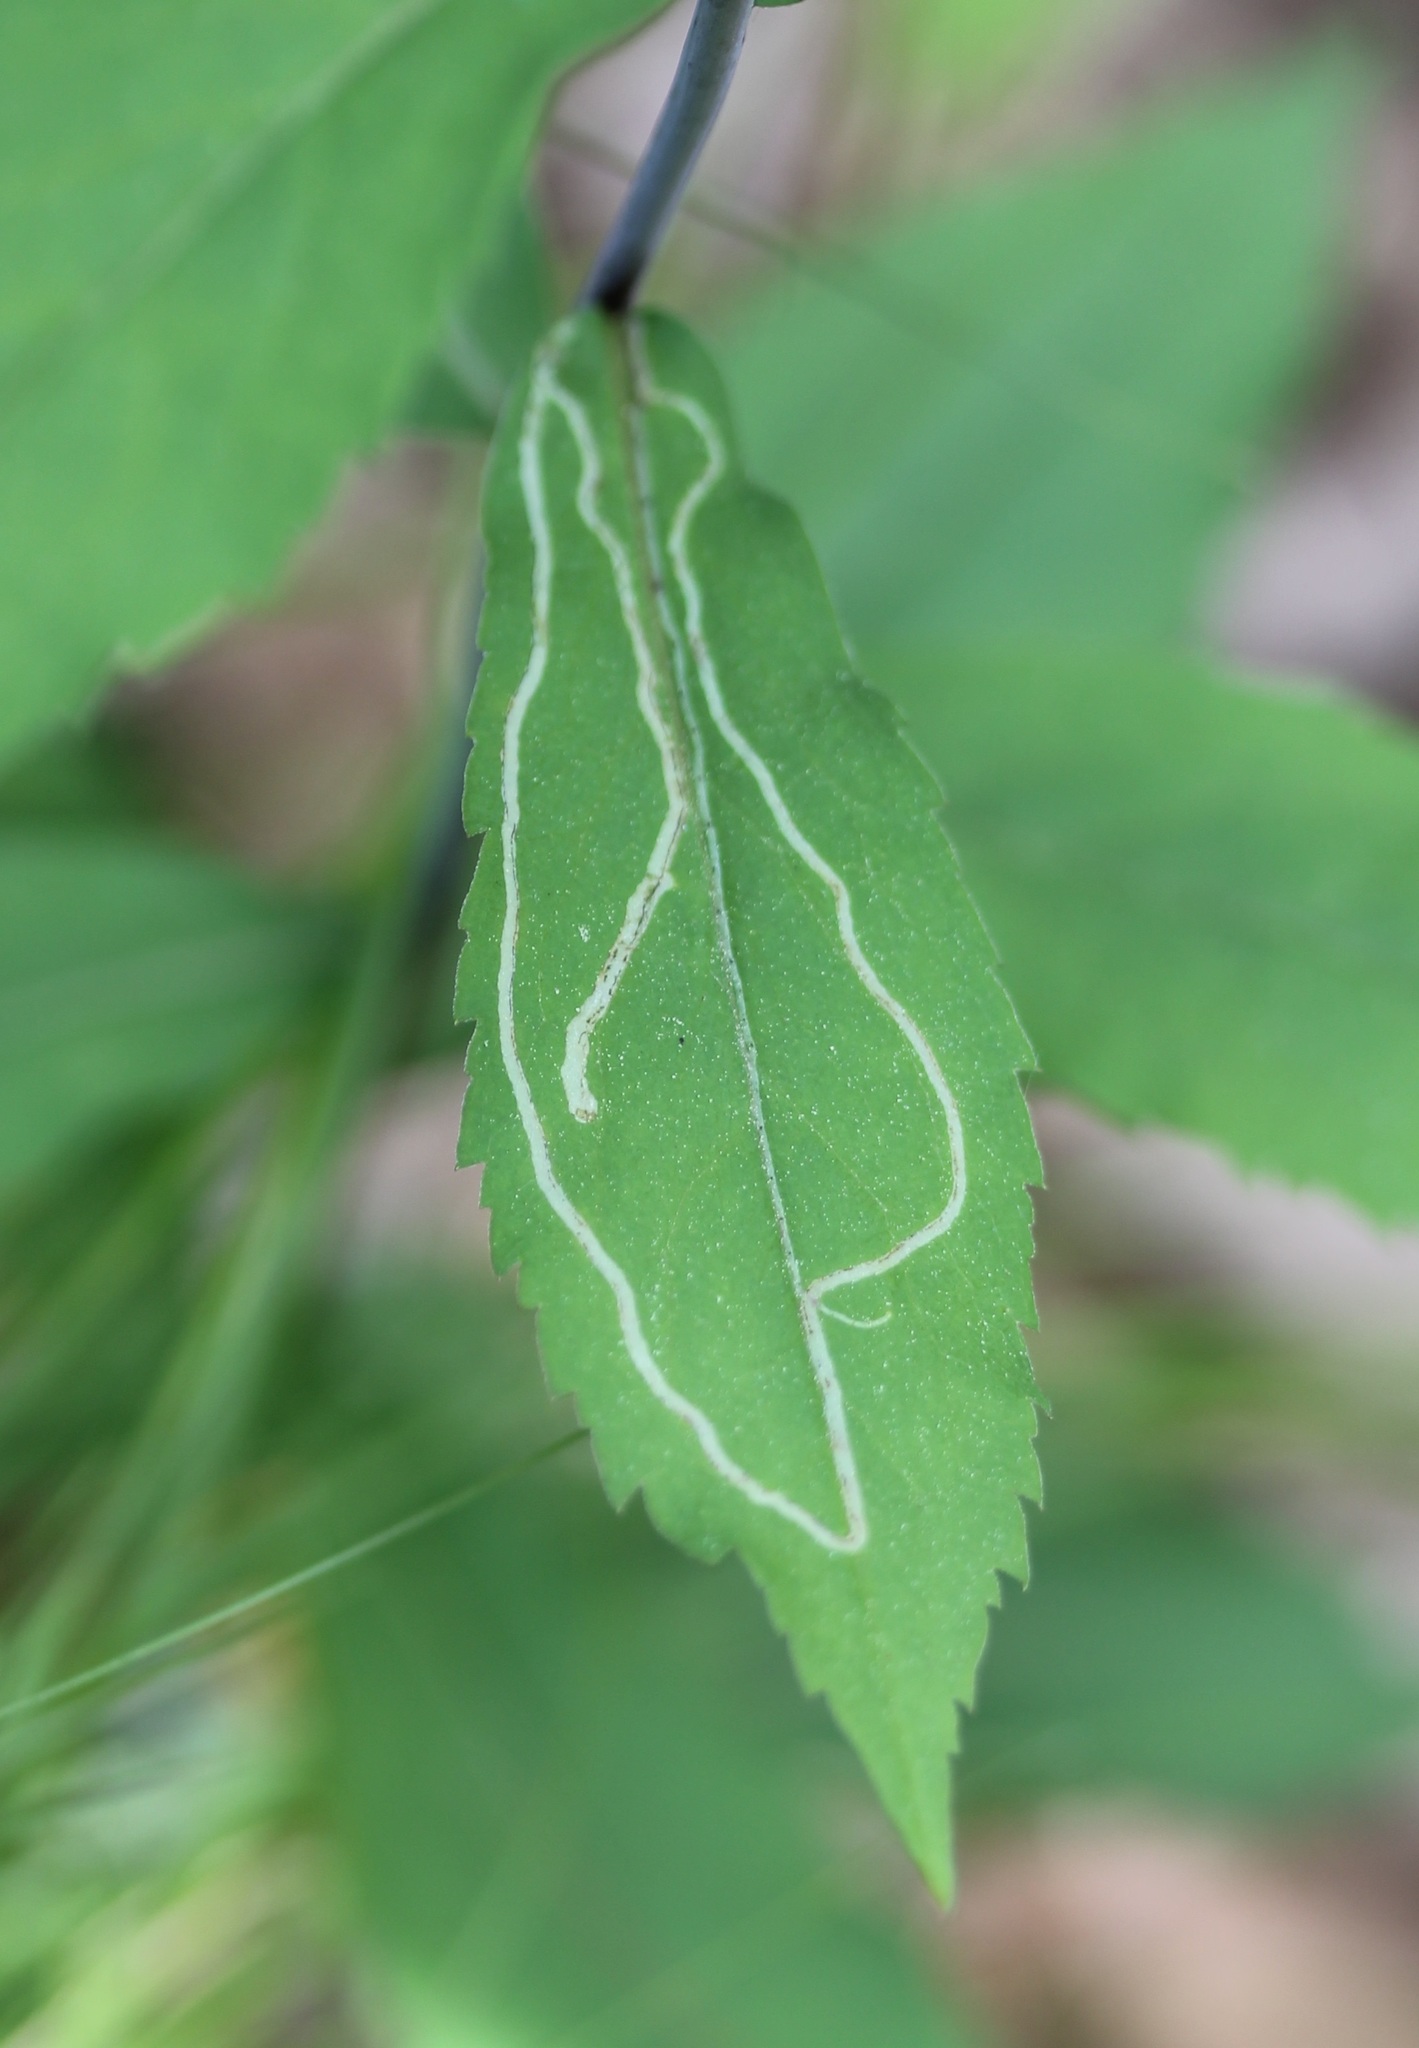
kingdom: Animalia
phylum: Arthropoda
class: Insecta
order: Diptera
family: Agromyzidae
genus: Ophiomyia
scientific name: Ophiomyia maura
